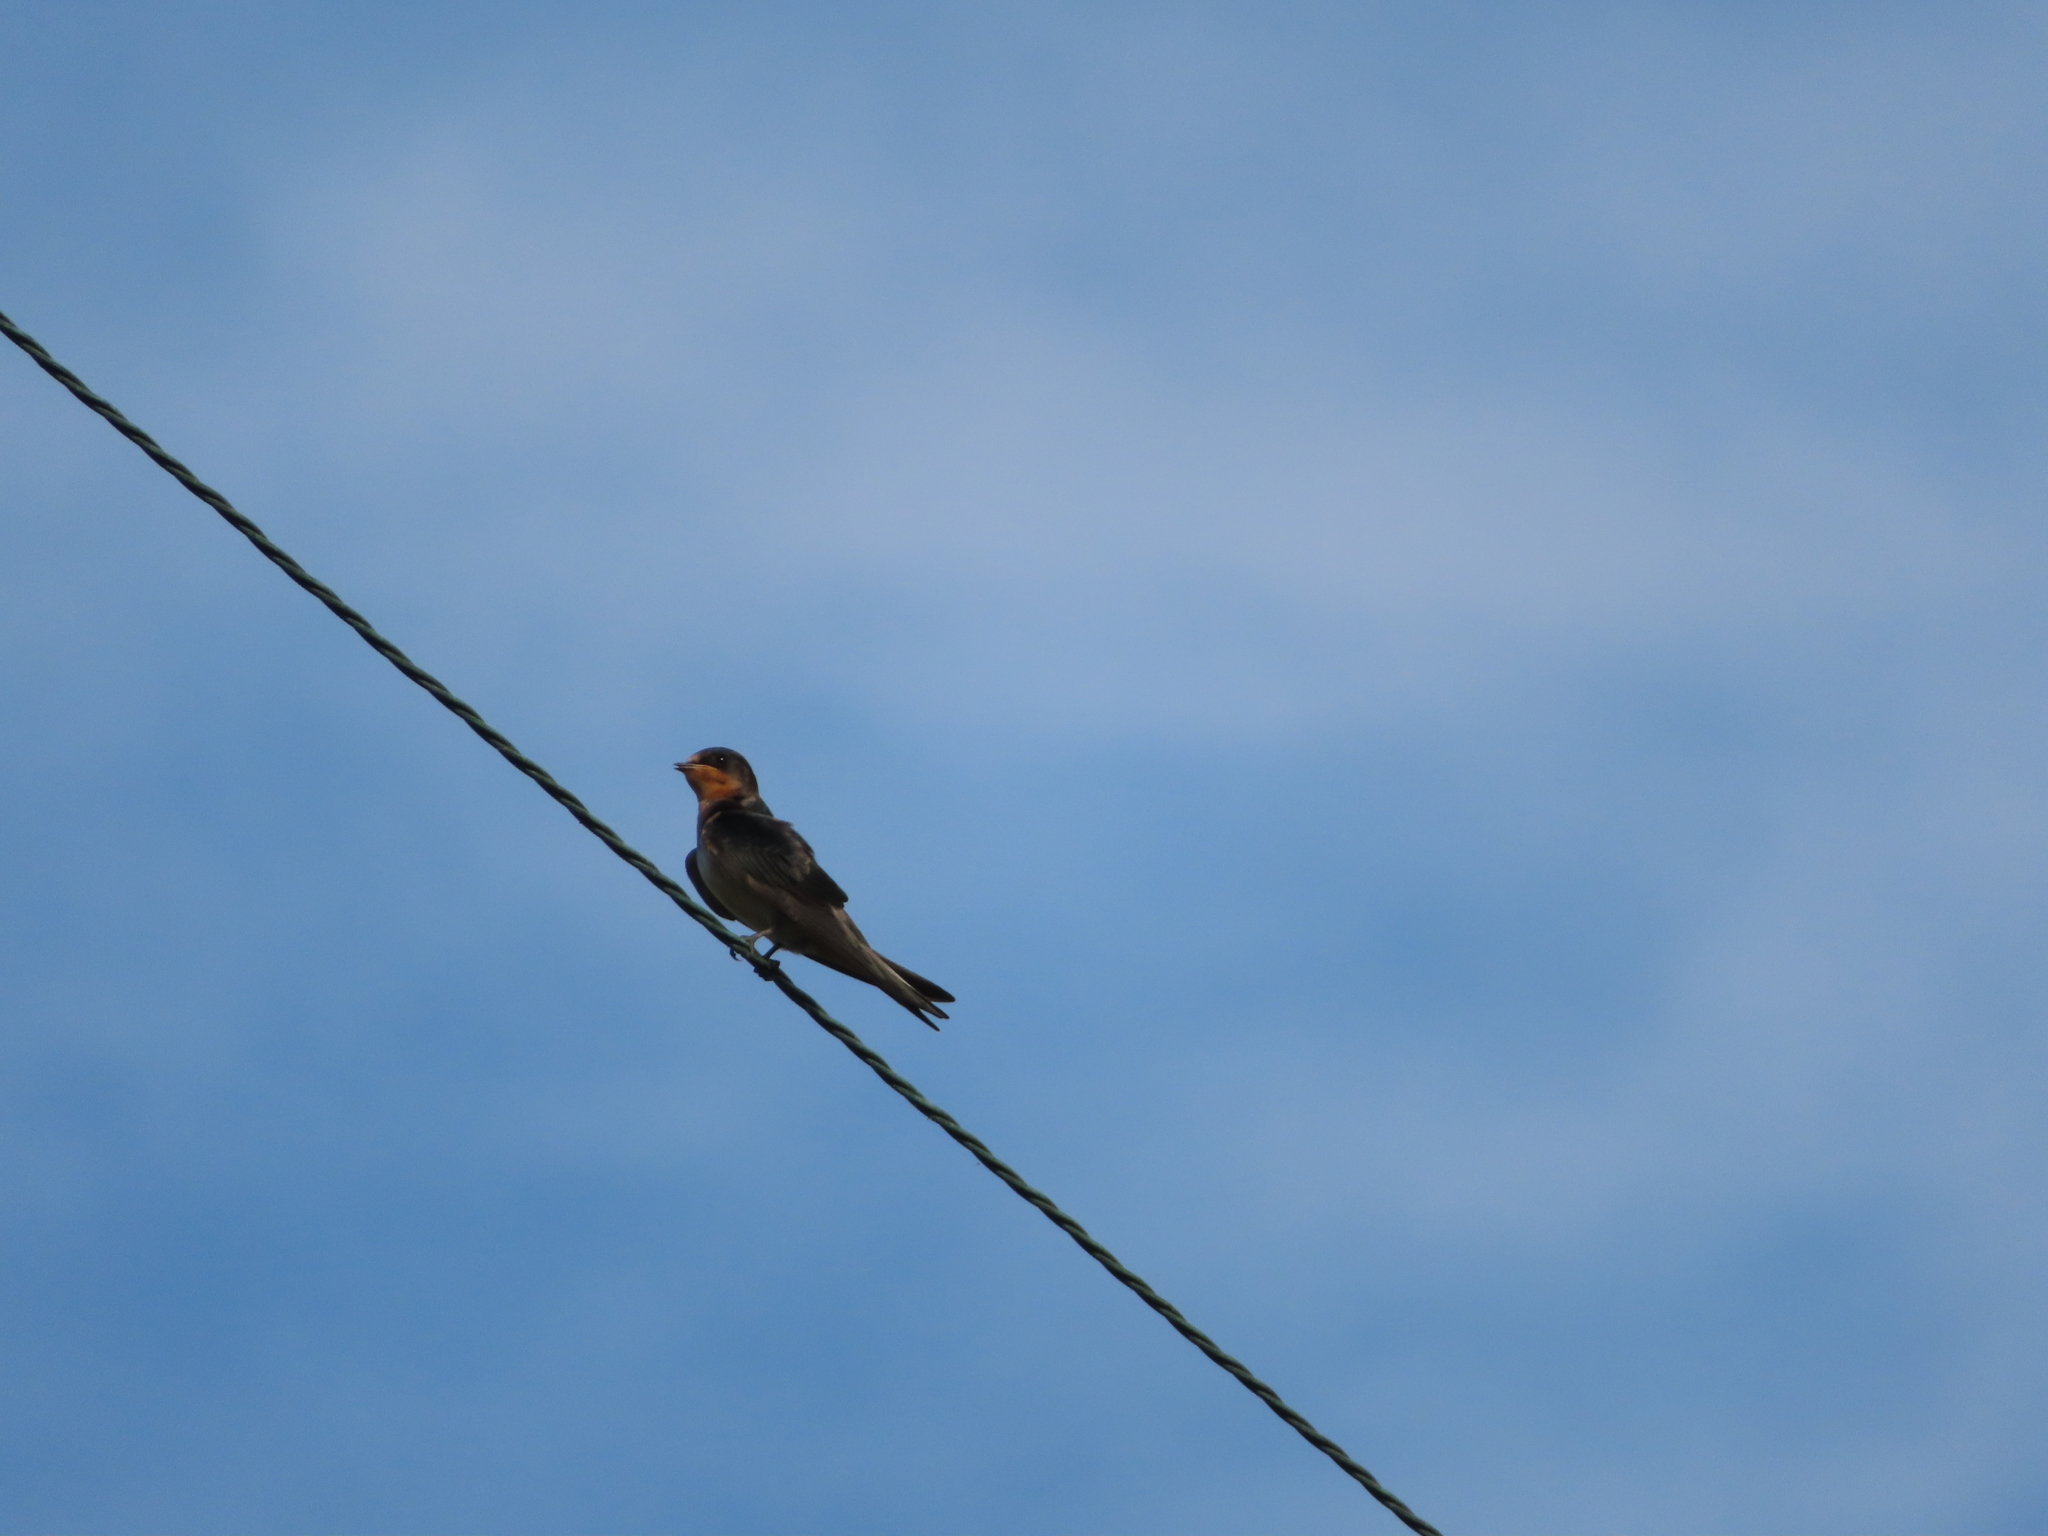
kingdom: Animalia
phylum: Chordata
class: Aves
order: Passeriformes
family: Hirundinidae
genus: Hirundo
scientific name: Hirundo rustica
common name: Barn swallow
